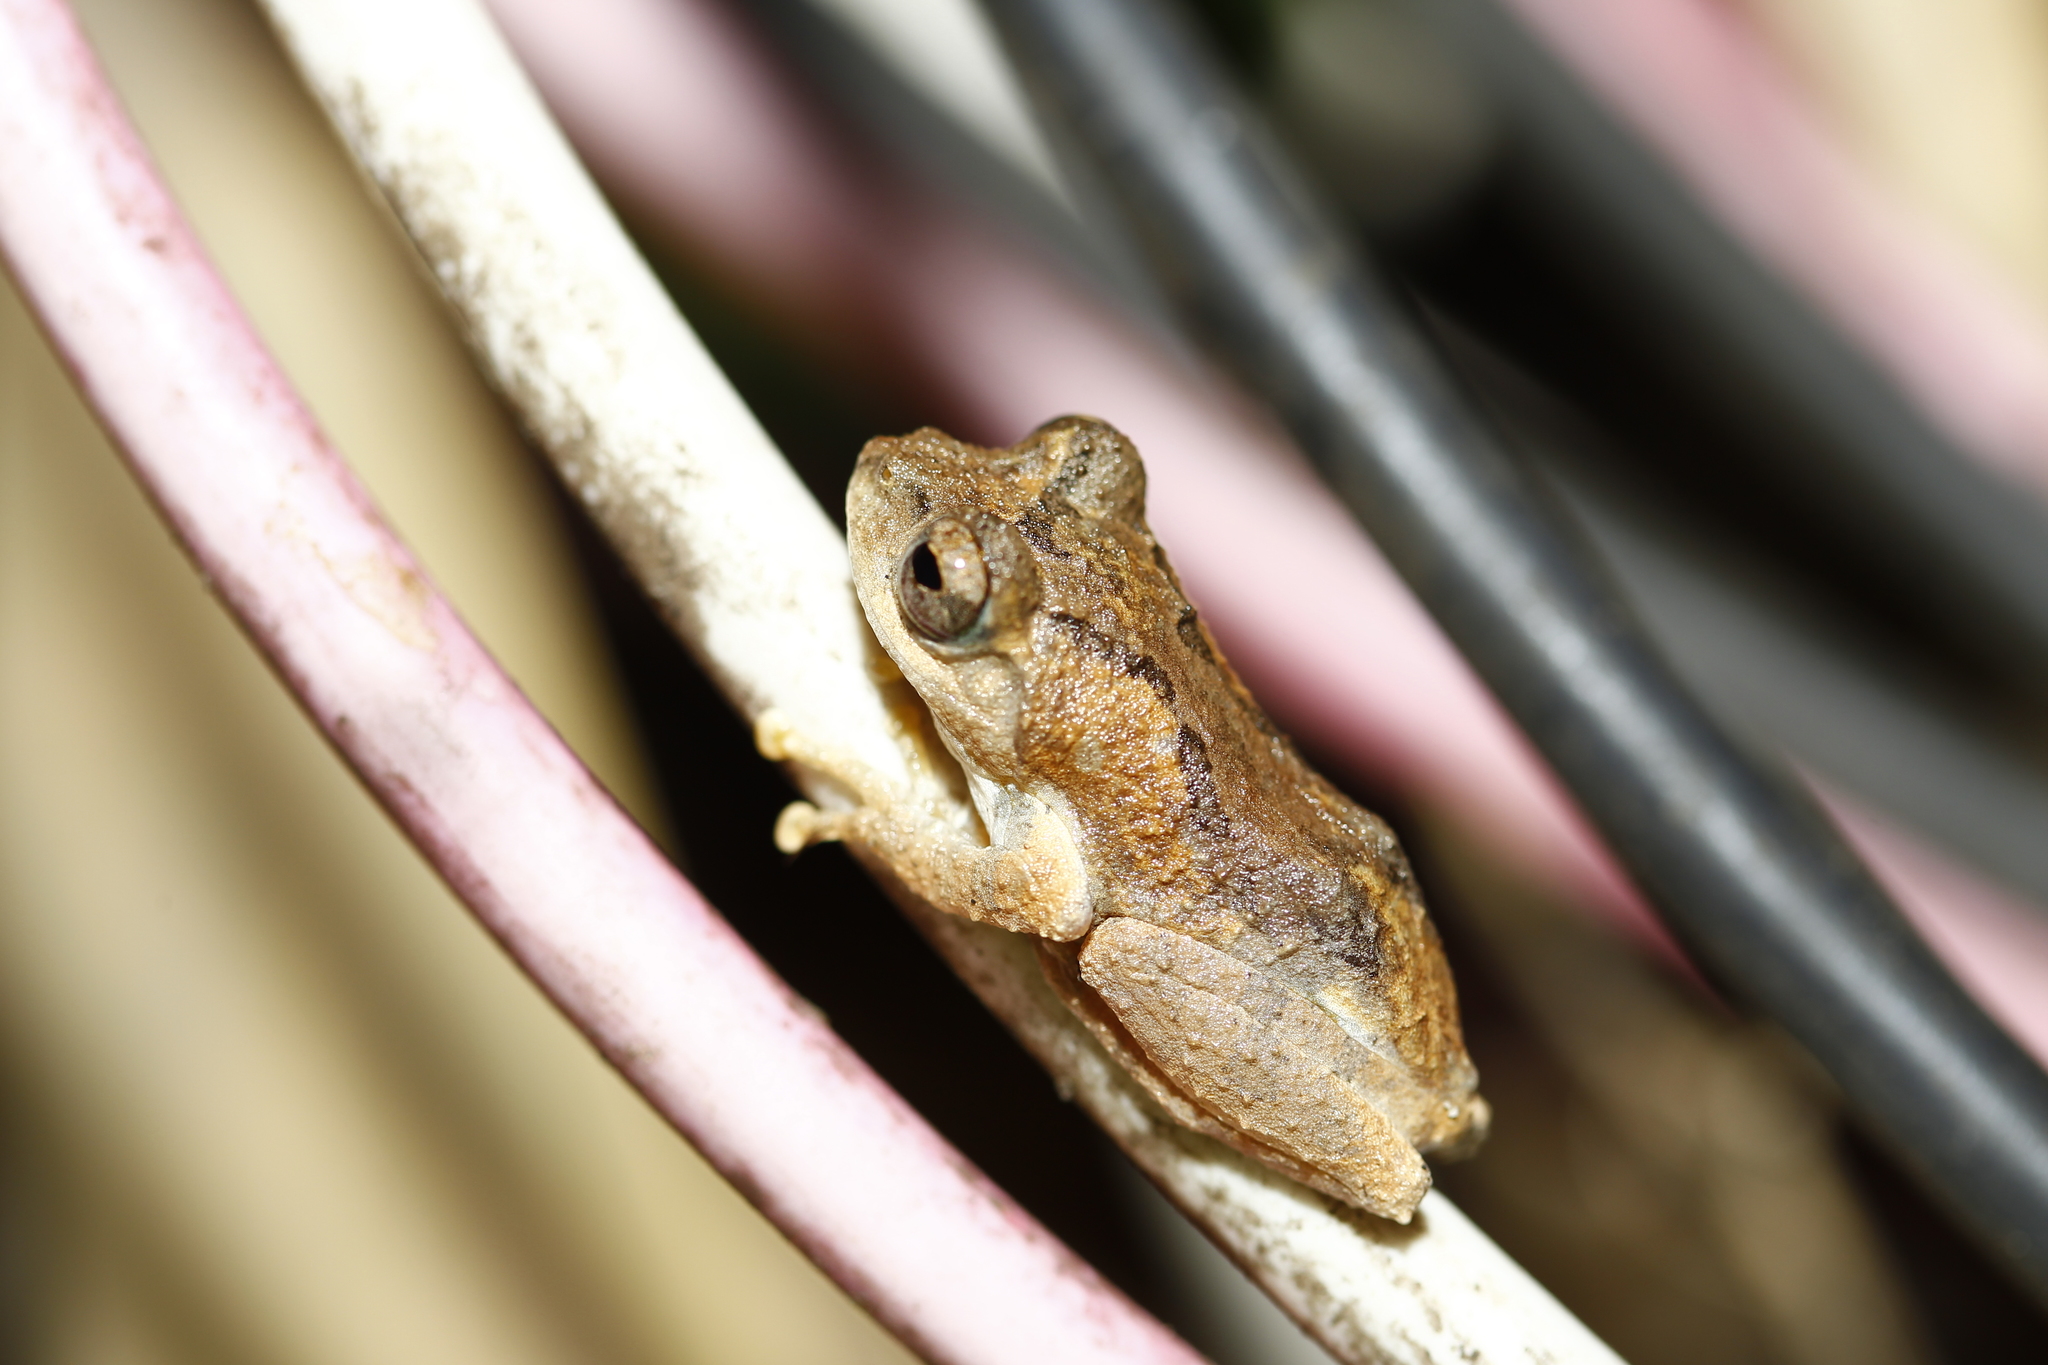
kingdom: Animalia
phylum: Chordata
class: Amphibia
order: Anura
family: Rhacophoridae
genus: Kurixalus
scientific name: Kurixalus idiootocus
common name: Temple treefrog
